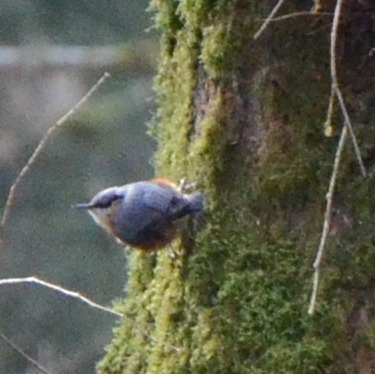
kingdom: Animalia
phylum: Chordata
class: Aves
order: Passeriformes
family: Sittidae
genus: Sitta
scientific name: Sitta europaea
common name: Eurasian nuthatch
